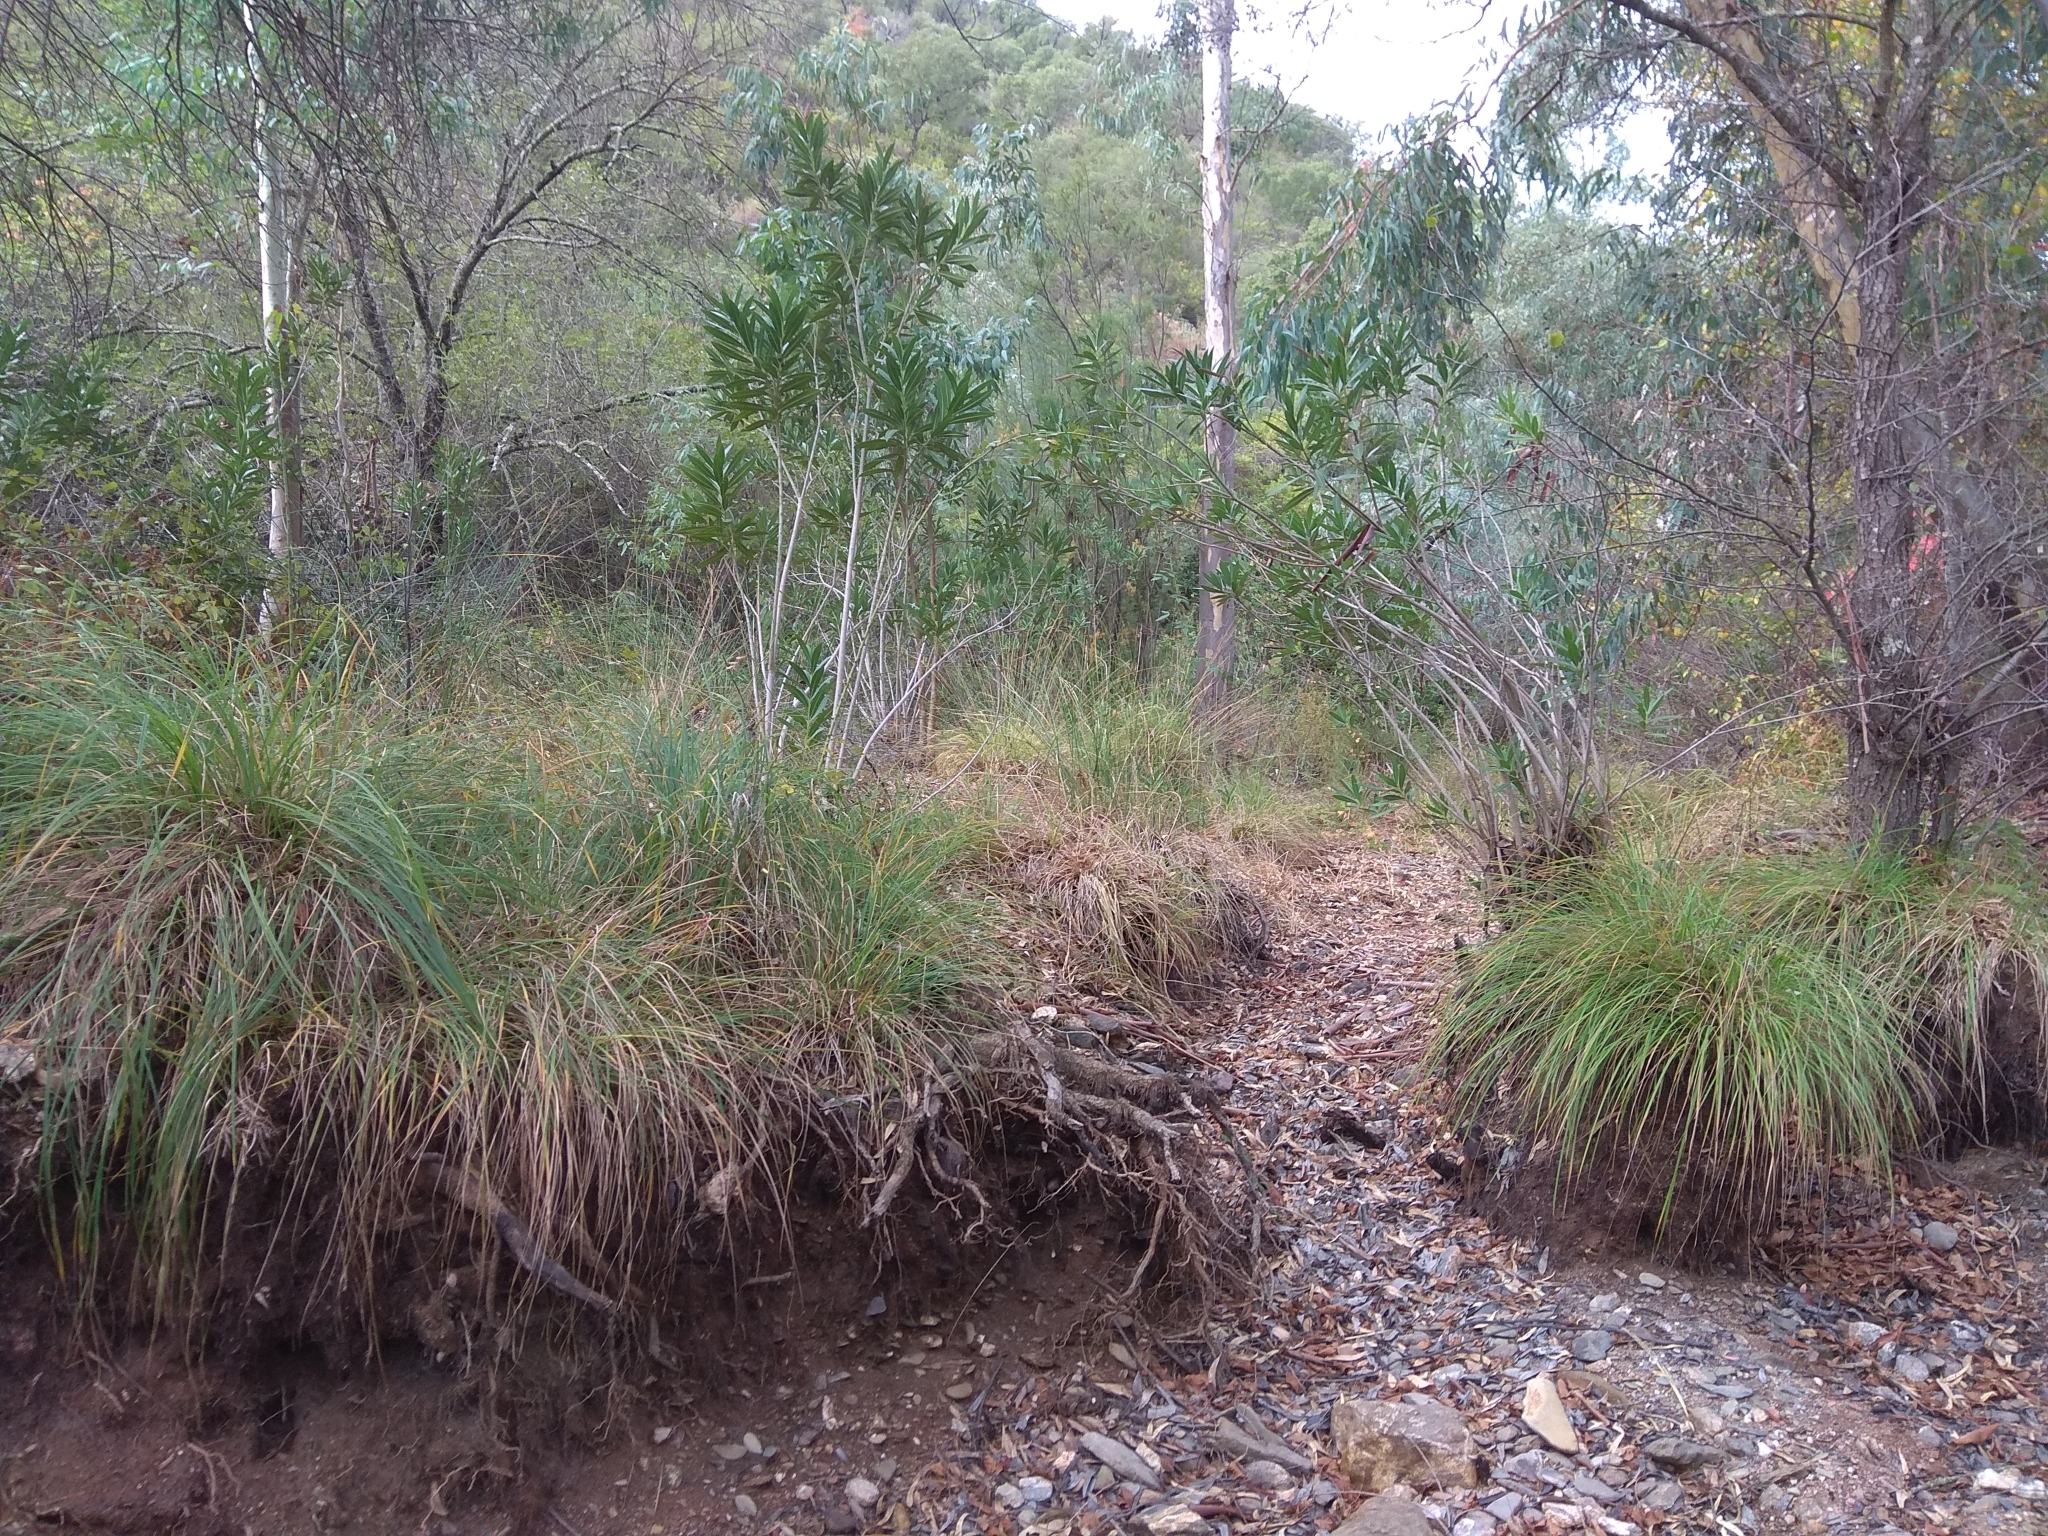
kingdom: Plantae
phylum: Tracheophyta
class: Liliopsida
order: Poales
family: Cyperaceae
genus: Carex
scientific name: Carex reuteriana
